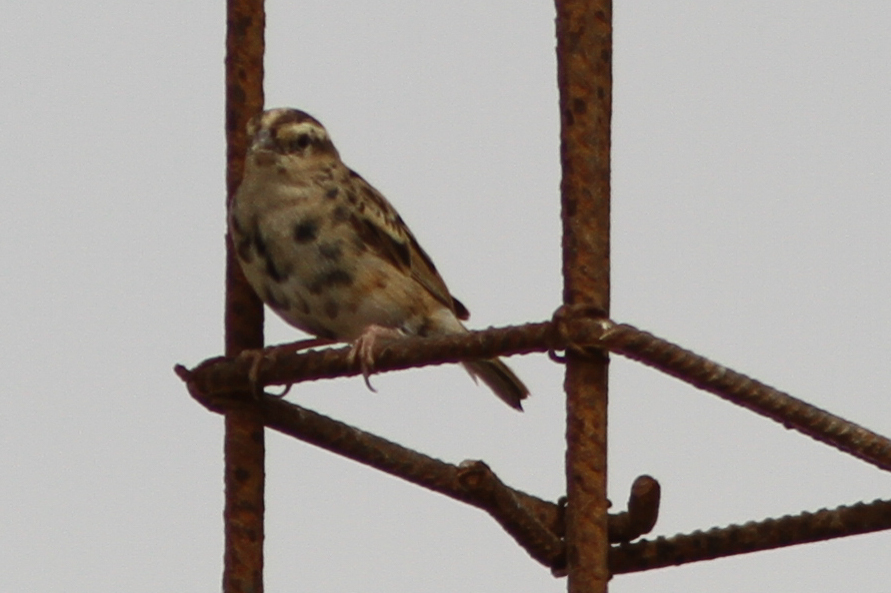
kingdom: Animalia
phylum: Chordata
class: Aves
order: Passeriformes
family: Viduidae
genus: Vidua
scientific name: Vidua chalybeata
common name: Village indigobird
